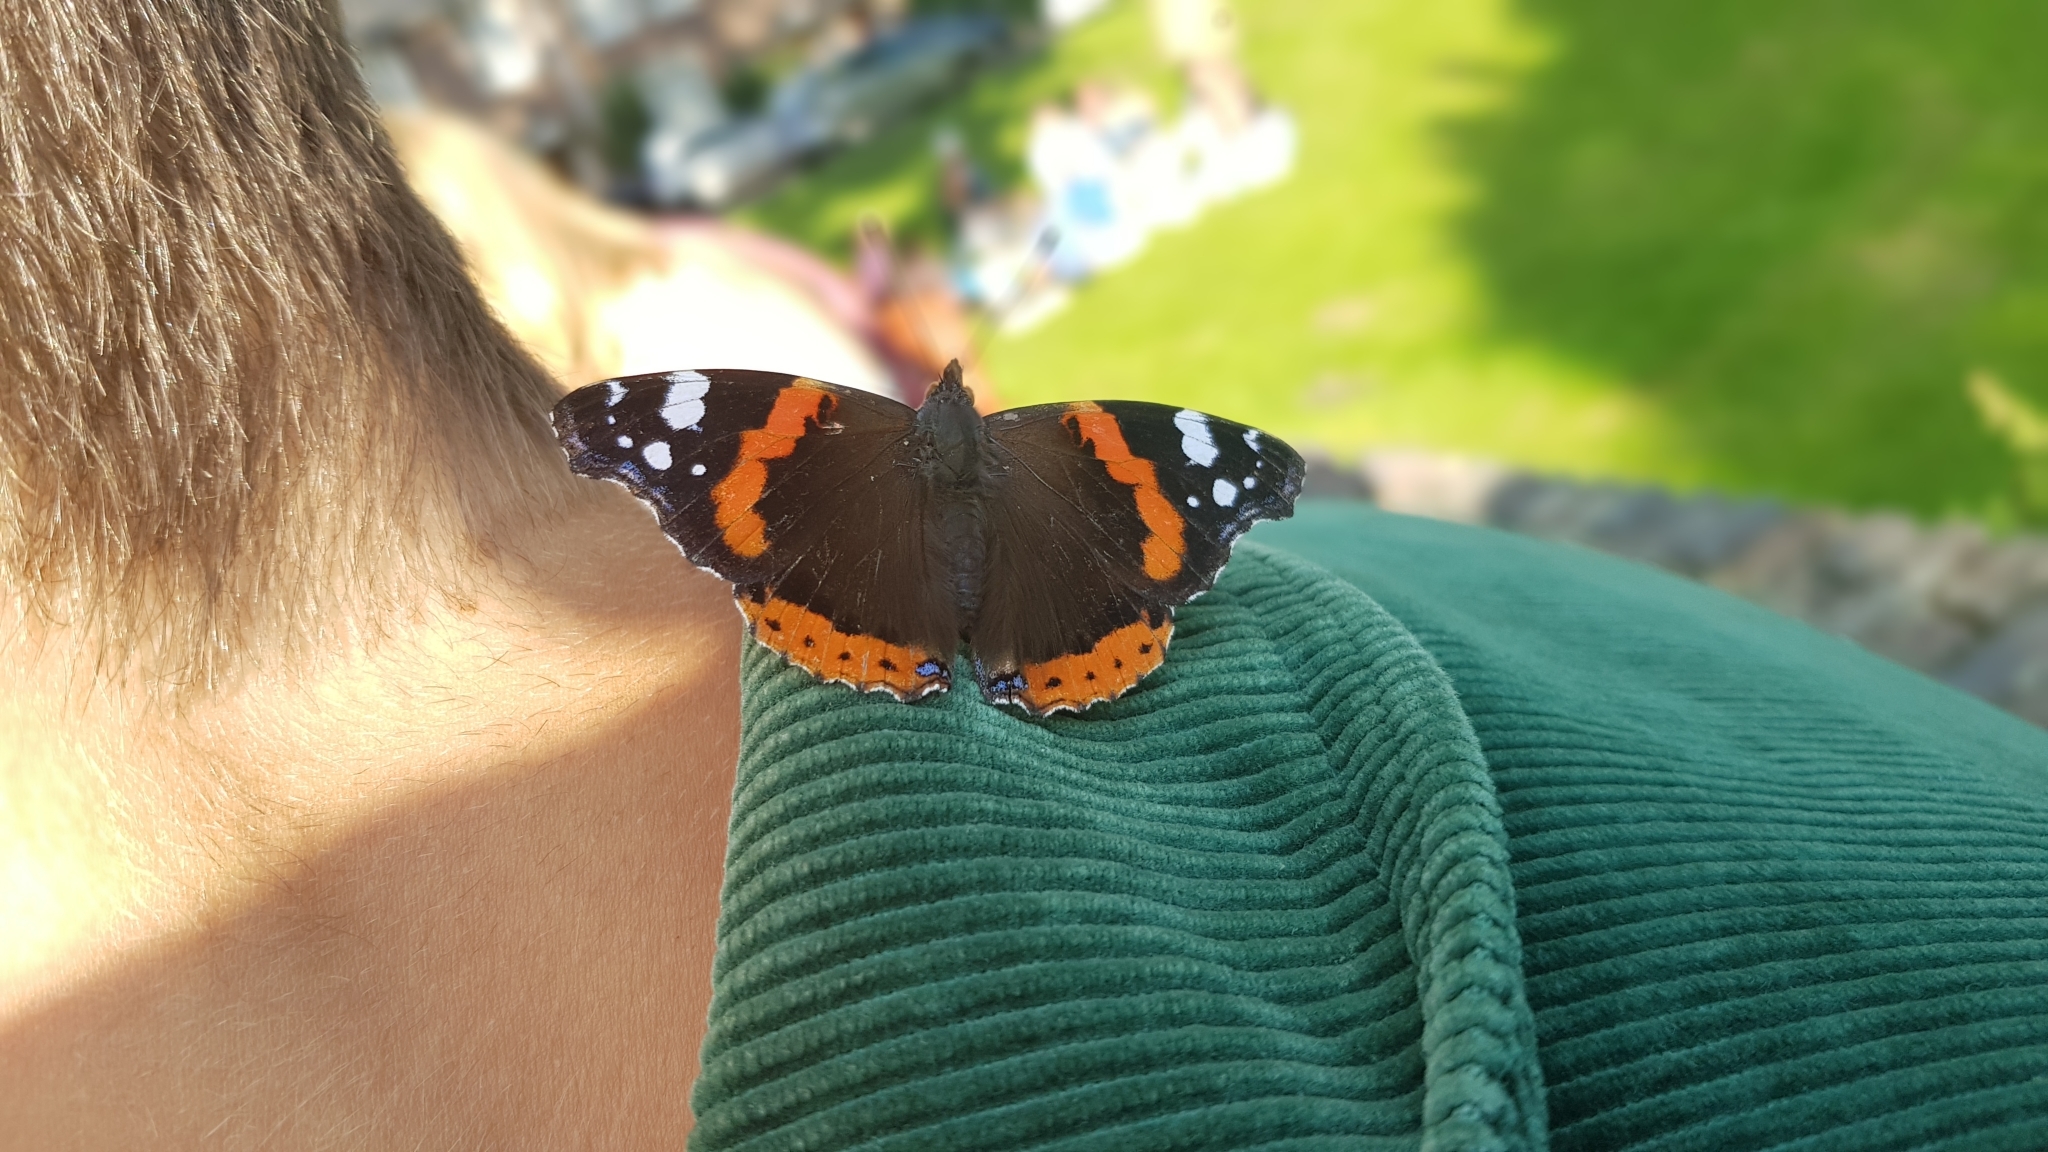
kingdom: Animalia
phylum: Arthropoda
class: Insecta
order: Lepidoptera
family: Nymphalidae
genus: Vanessa
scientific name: Vanessa atalanta
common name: Red admiral
